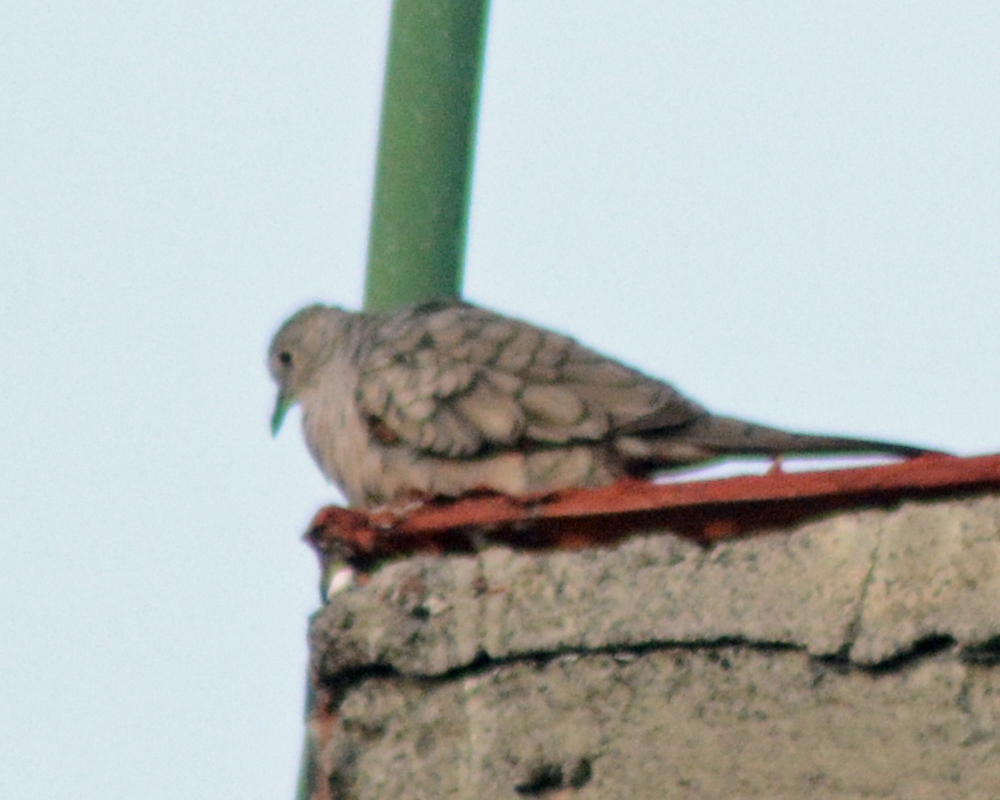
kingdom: Animalia
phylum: Chordata
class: Aves
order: Columbiformes
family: Columbidae
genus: Columbina
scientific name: Columbina inca
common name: Inca dove
